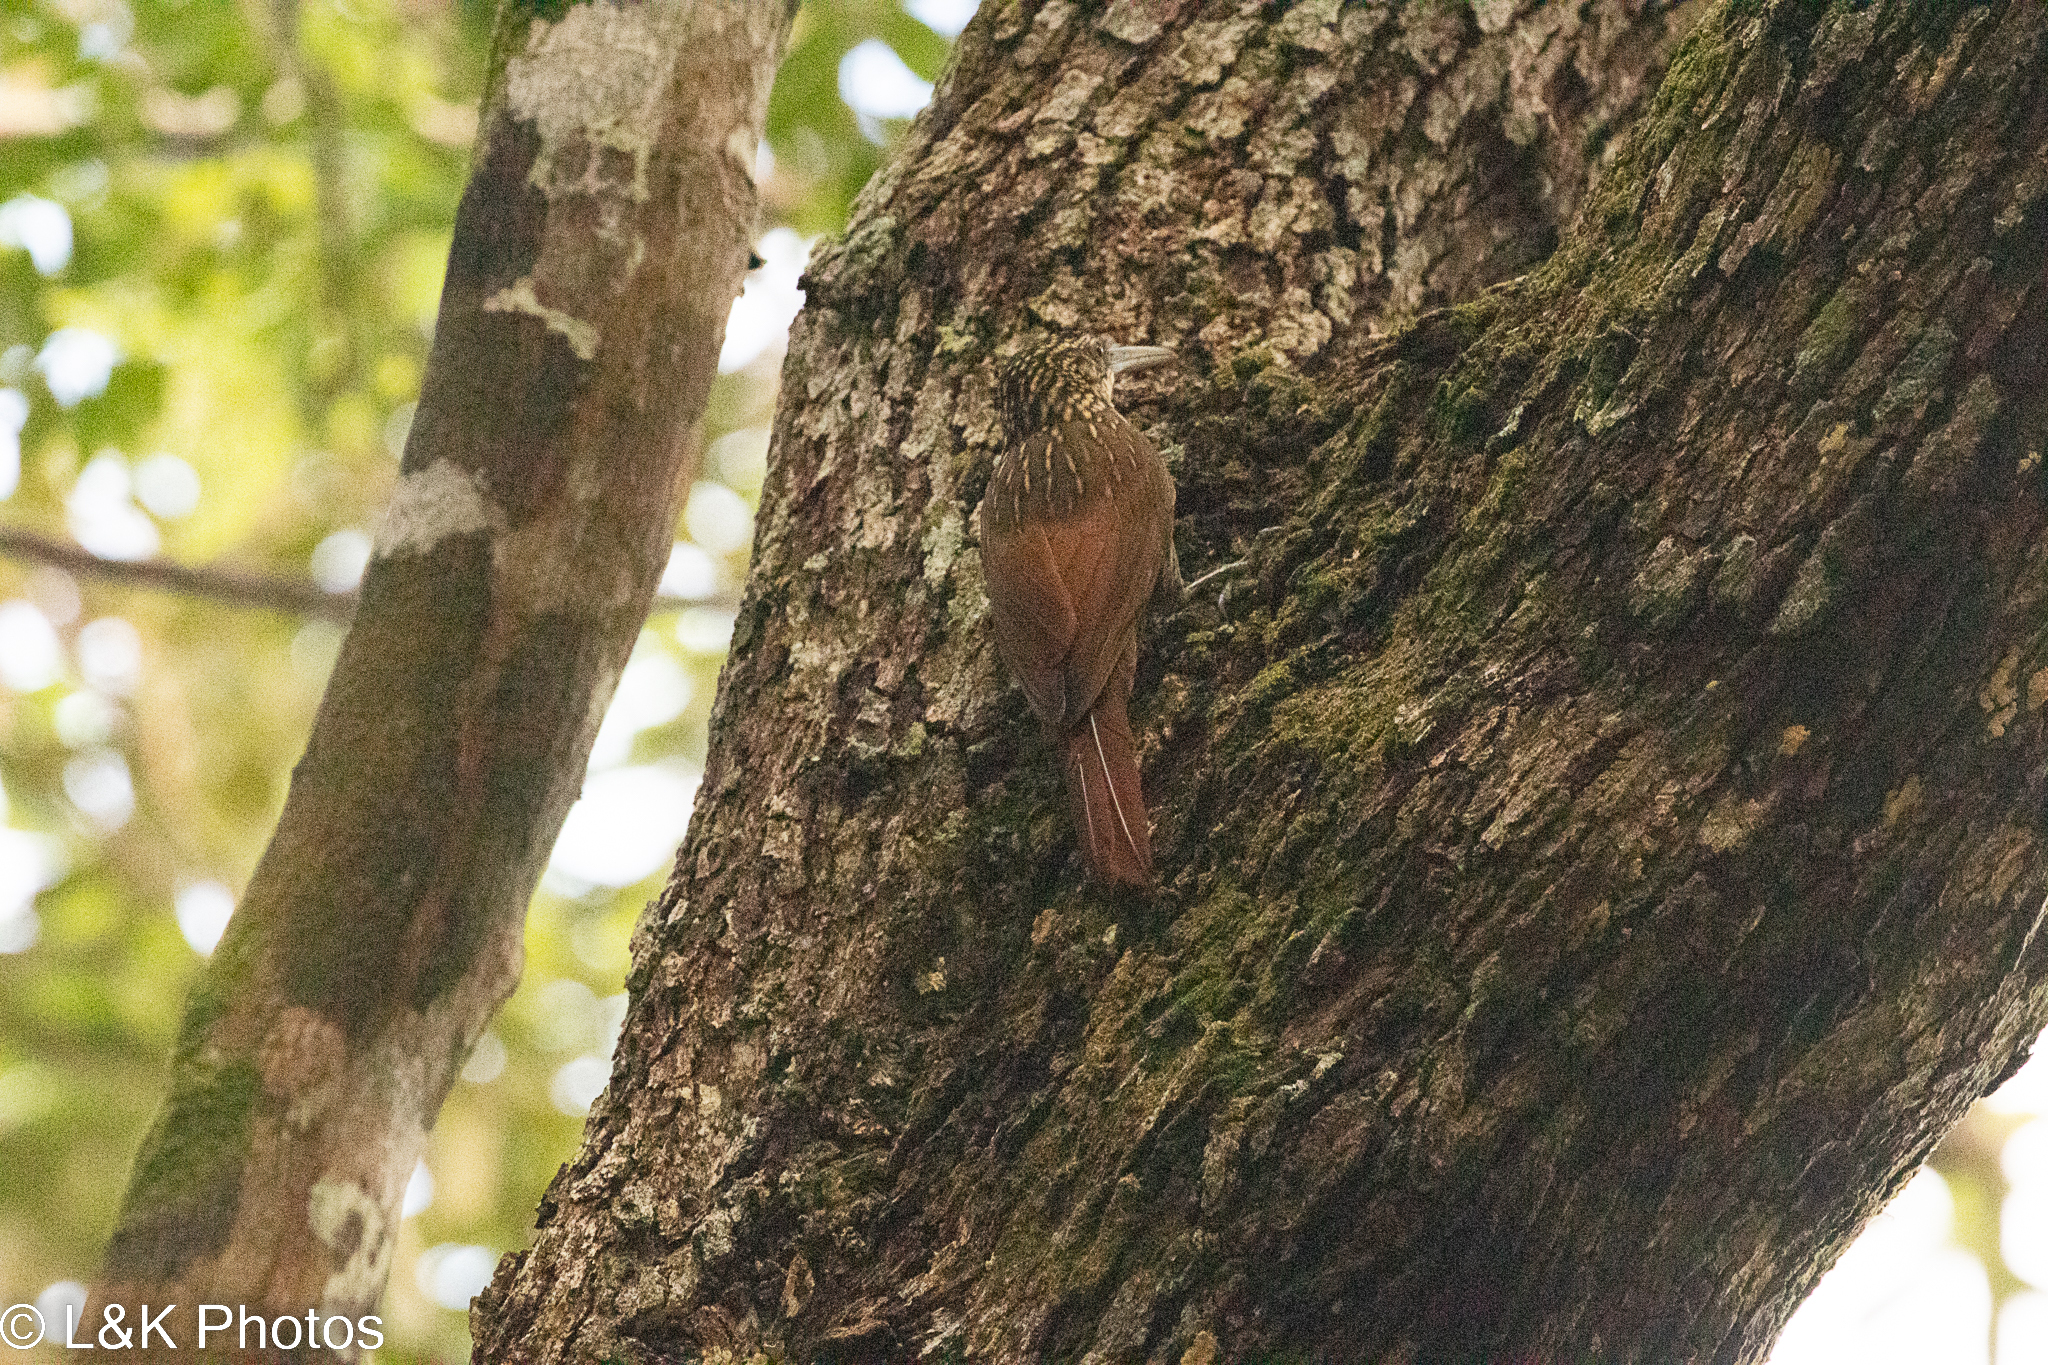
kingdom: Animalia
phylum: Chordata
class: Aves
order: Passeriformes
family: Furnariidae
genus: Lepidocolaptes
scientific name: Lepidocolaptes souleyetii
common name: Streak-headed woodcreeper
